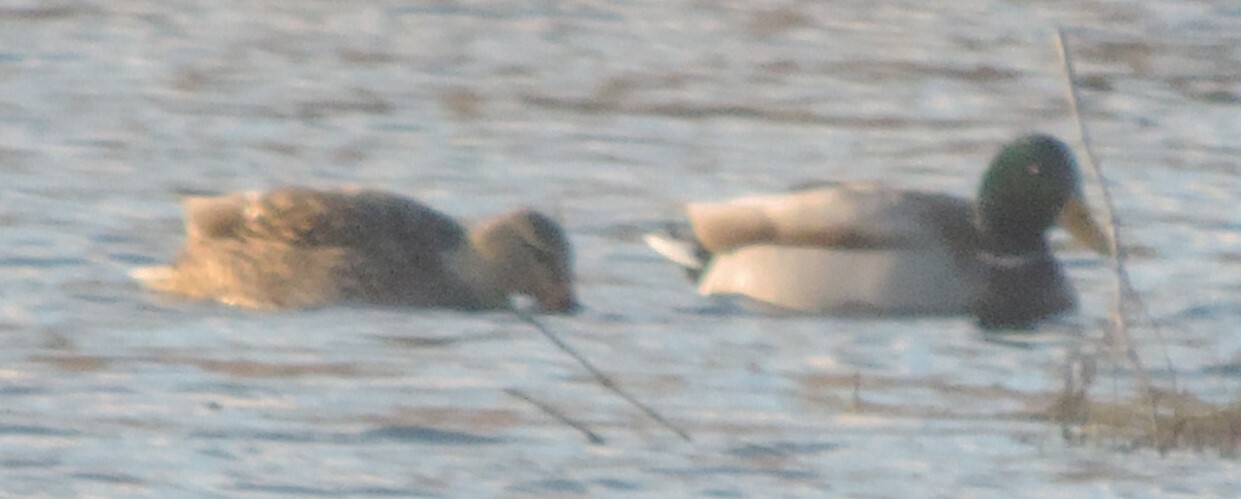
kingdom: Animalia
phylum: Chordata
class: Aves
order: Anseriformes
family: Anatidae
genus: Anas
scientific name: Anas platyrhynchos
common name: Mallard
